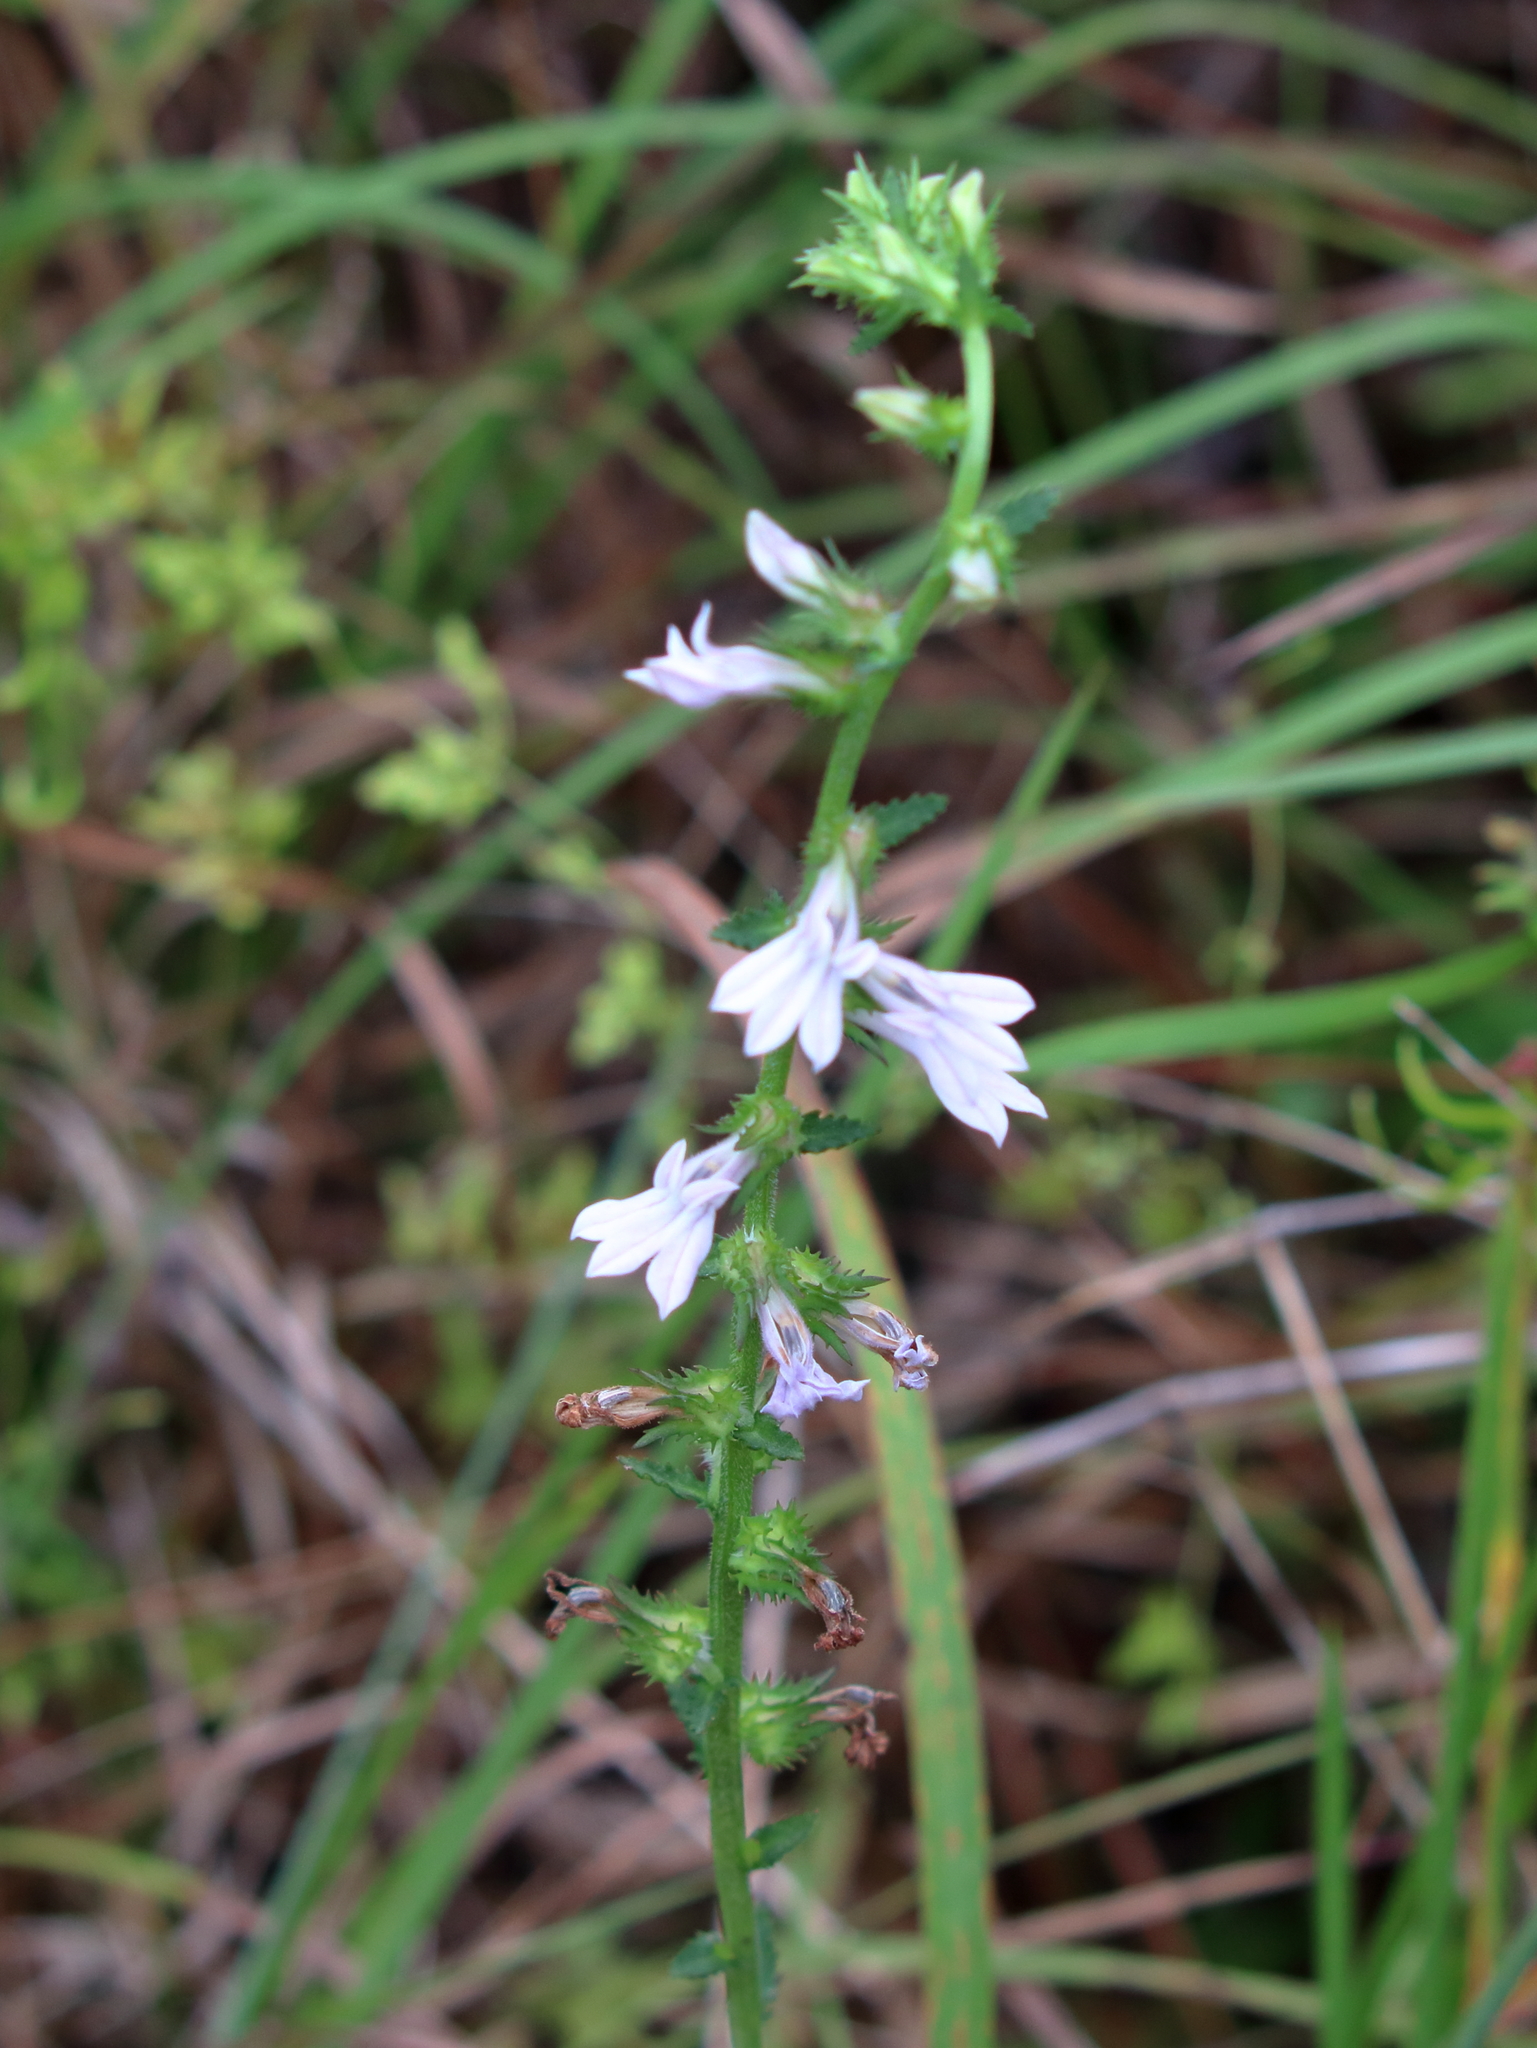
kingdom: Plantae
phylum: Tracheophyta
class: Magnoliopsida
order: Asterales
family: Campanulaceae
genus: Lobelia
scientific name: Lobelia brevifolia
